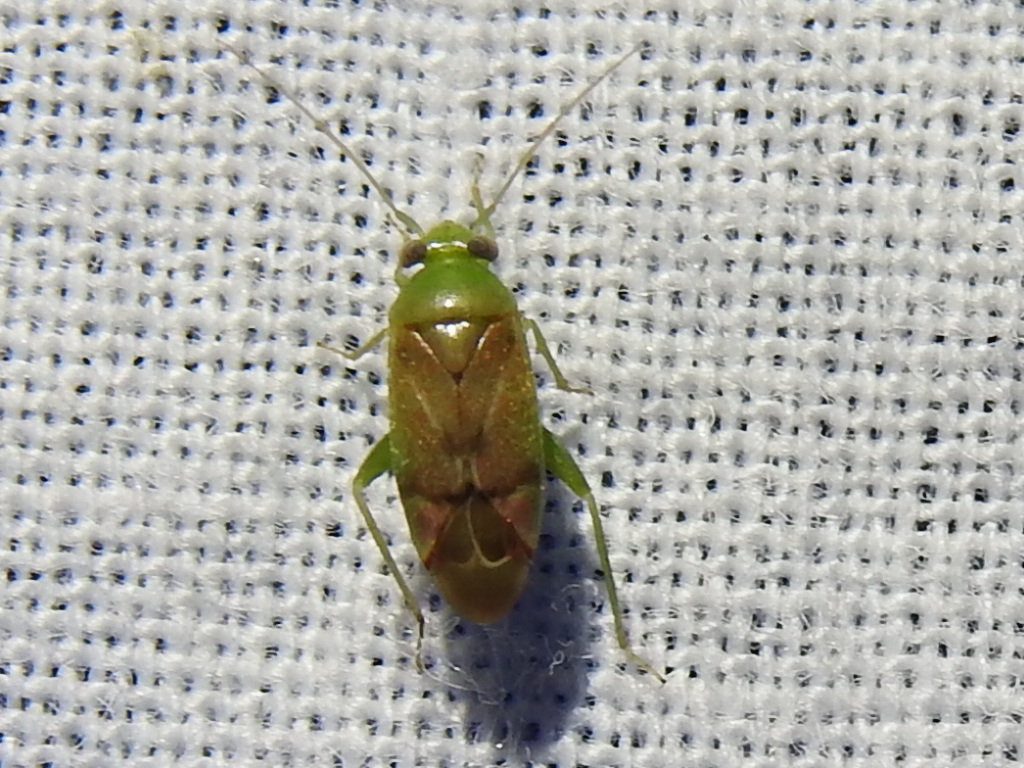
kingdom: Animalia
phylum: Arthropoda
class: Insecta
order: Hemiptera
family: Miridae
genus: Dichrooscytus
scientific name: Dichrooscytus
